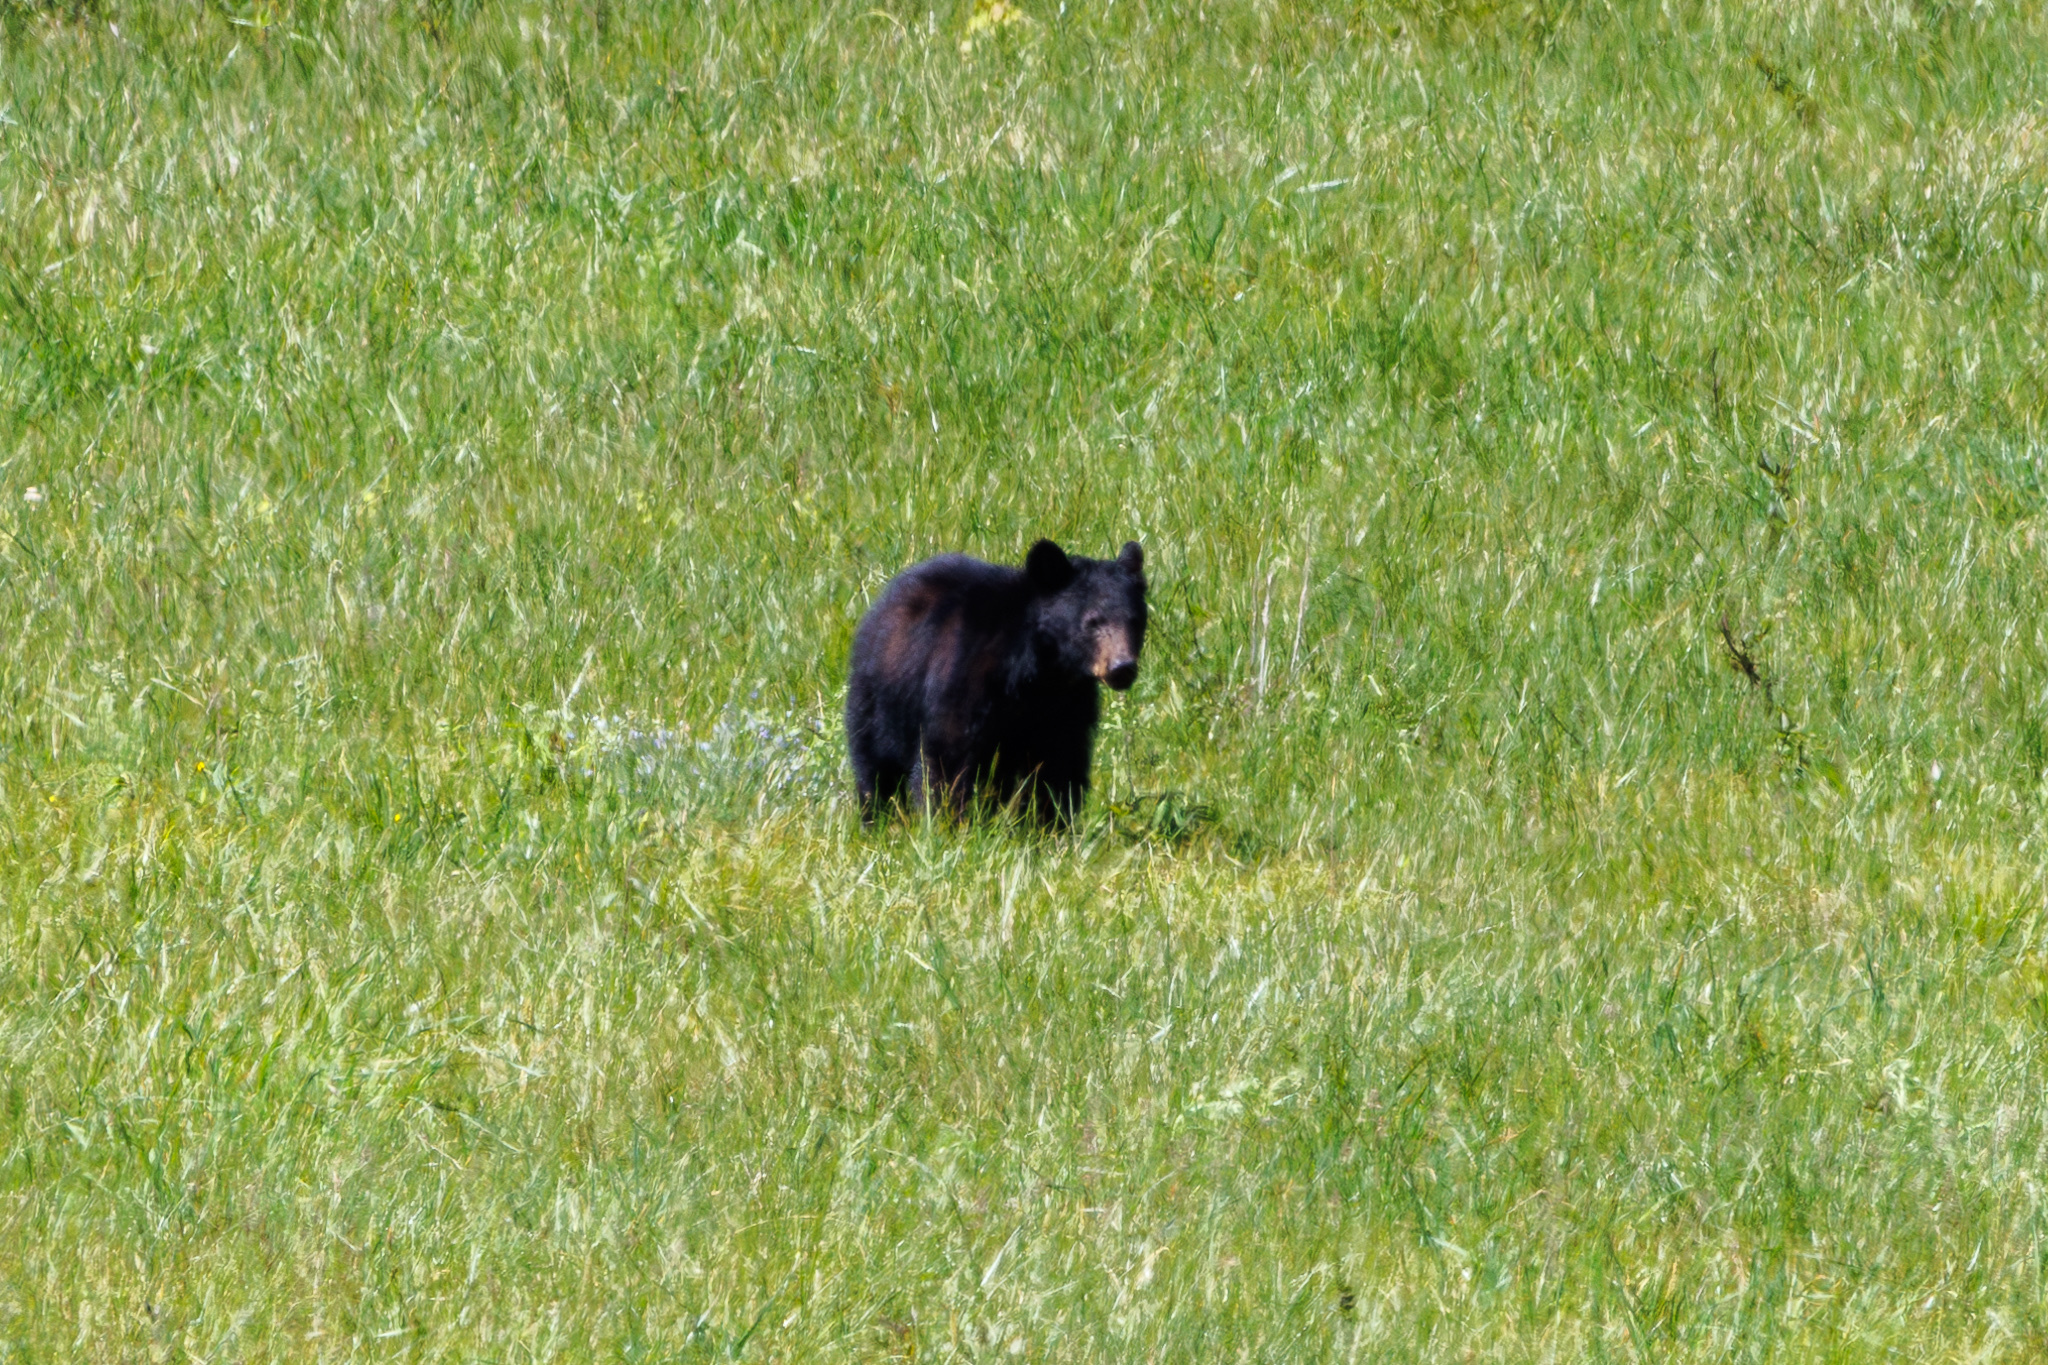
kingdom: Animalia
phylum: Chordata
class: Mammalia
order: Carnivora
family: Ursidae
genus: Ursus
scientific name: Ursus americanus
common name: American black bear
